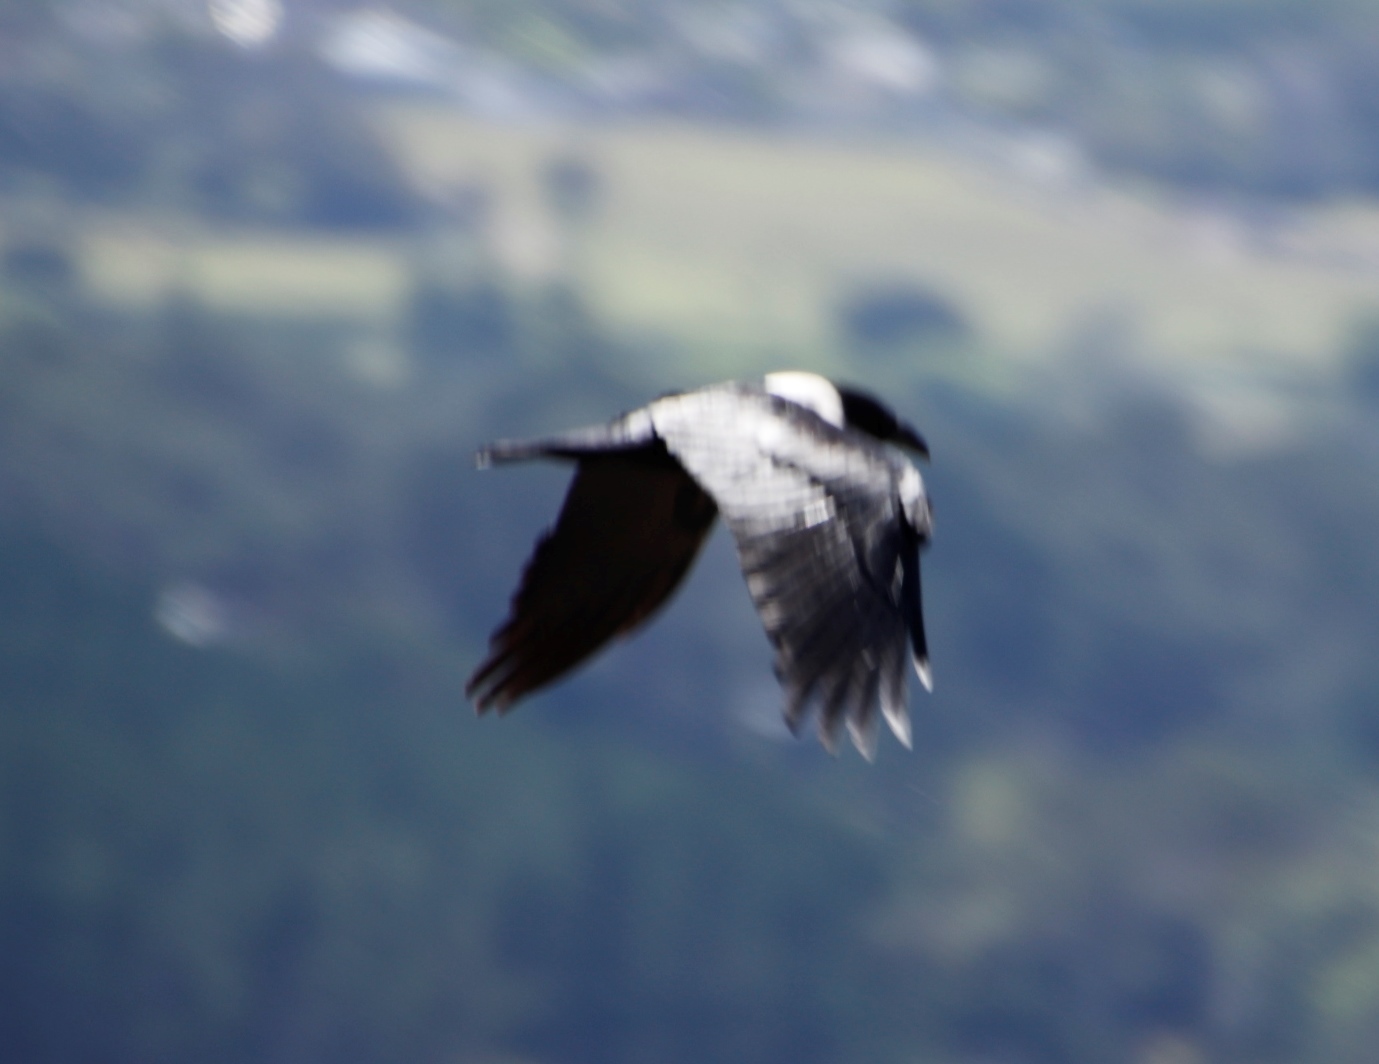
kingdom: Animalia
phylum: Chordata
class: Aves
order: Passeriformes
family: Corvidae
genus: Corvus
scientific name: Corvus albus
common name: Pied crow
